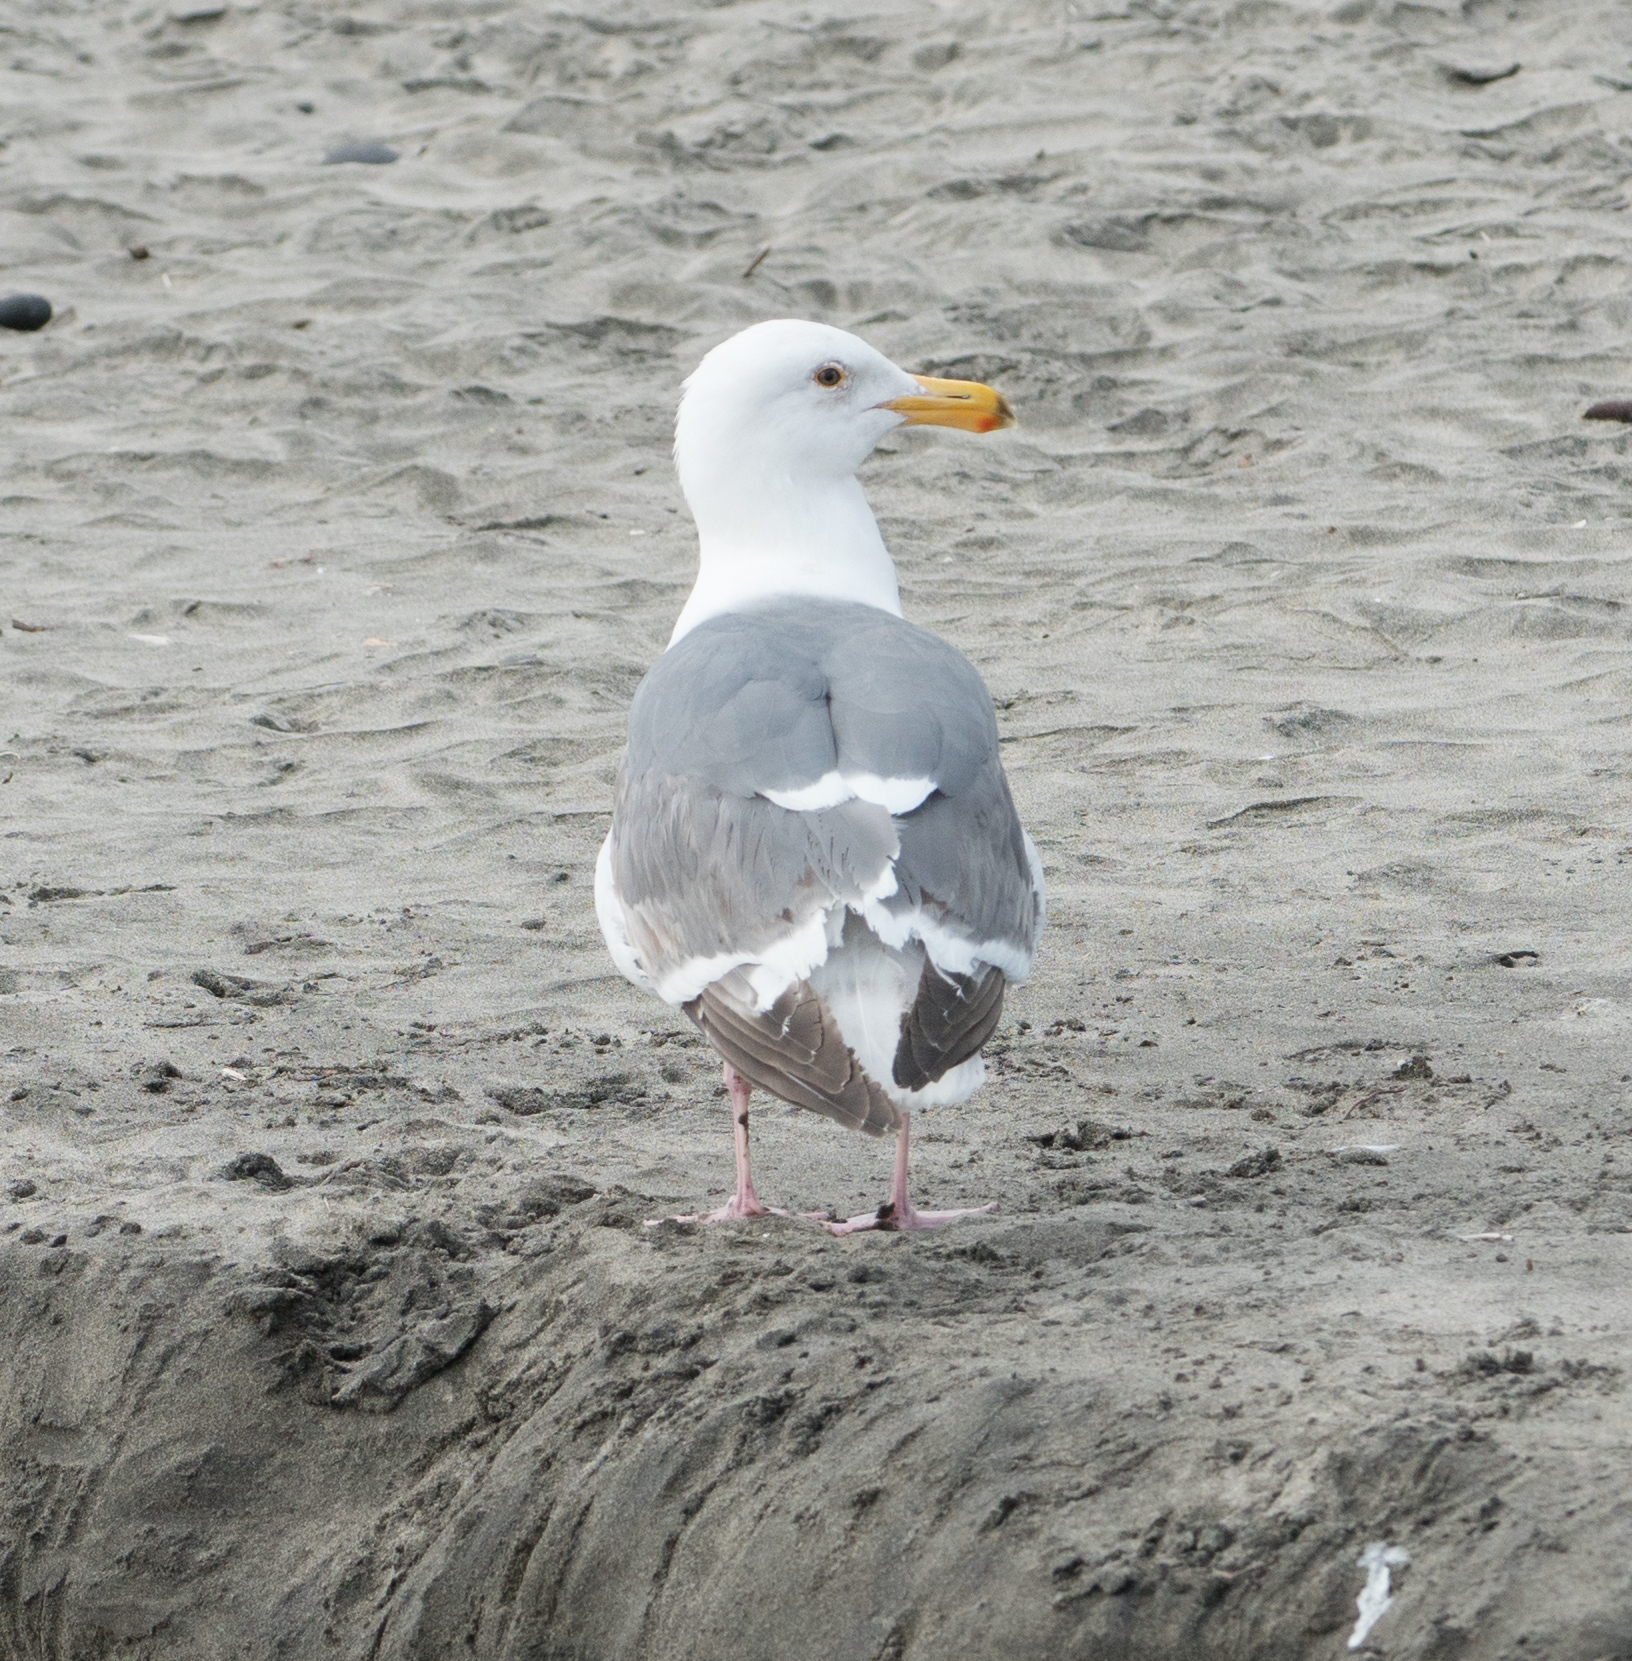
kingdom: Animalia
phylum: Chordata
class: Aves
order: Charadriiformes
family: Laridae
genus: Larus
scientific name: Larus
